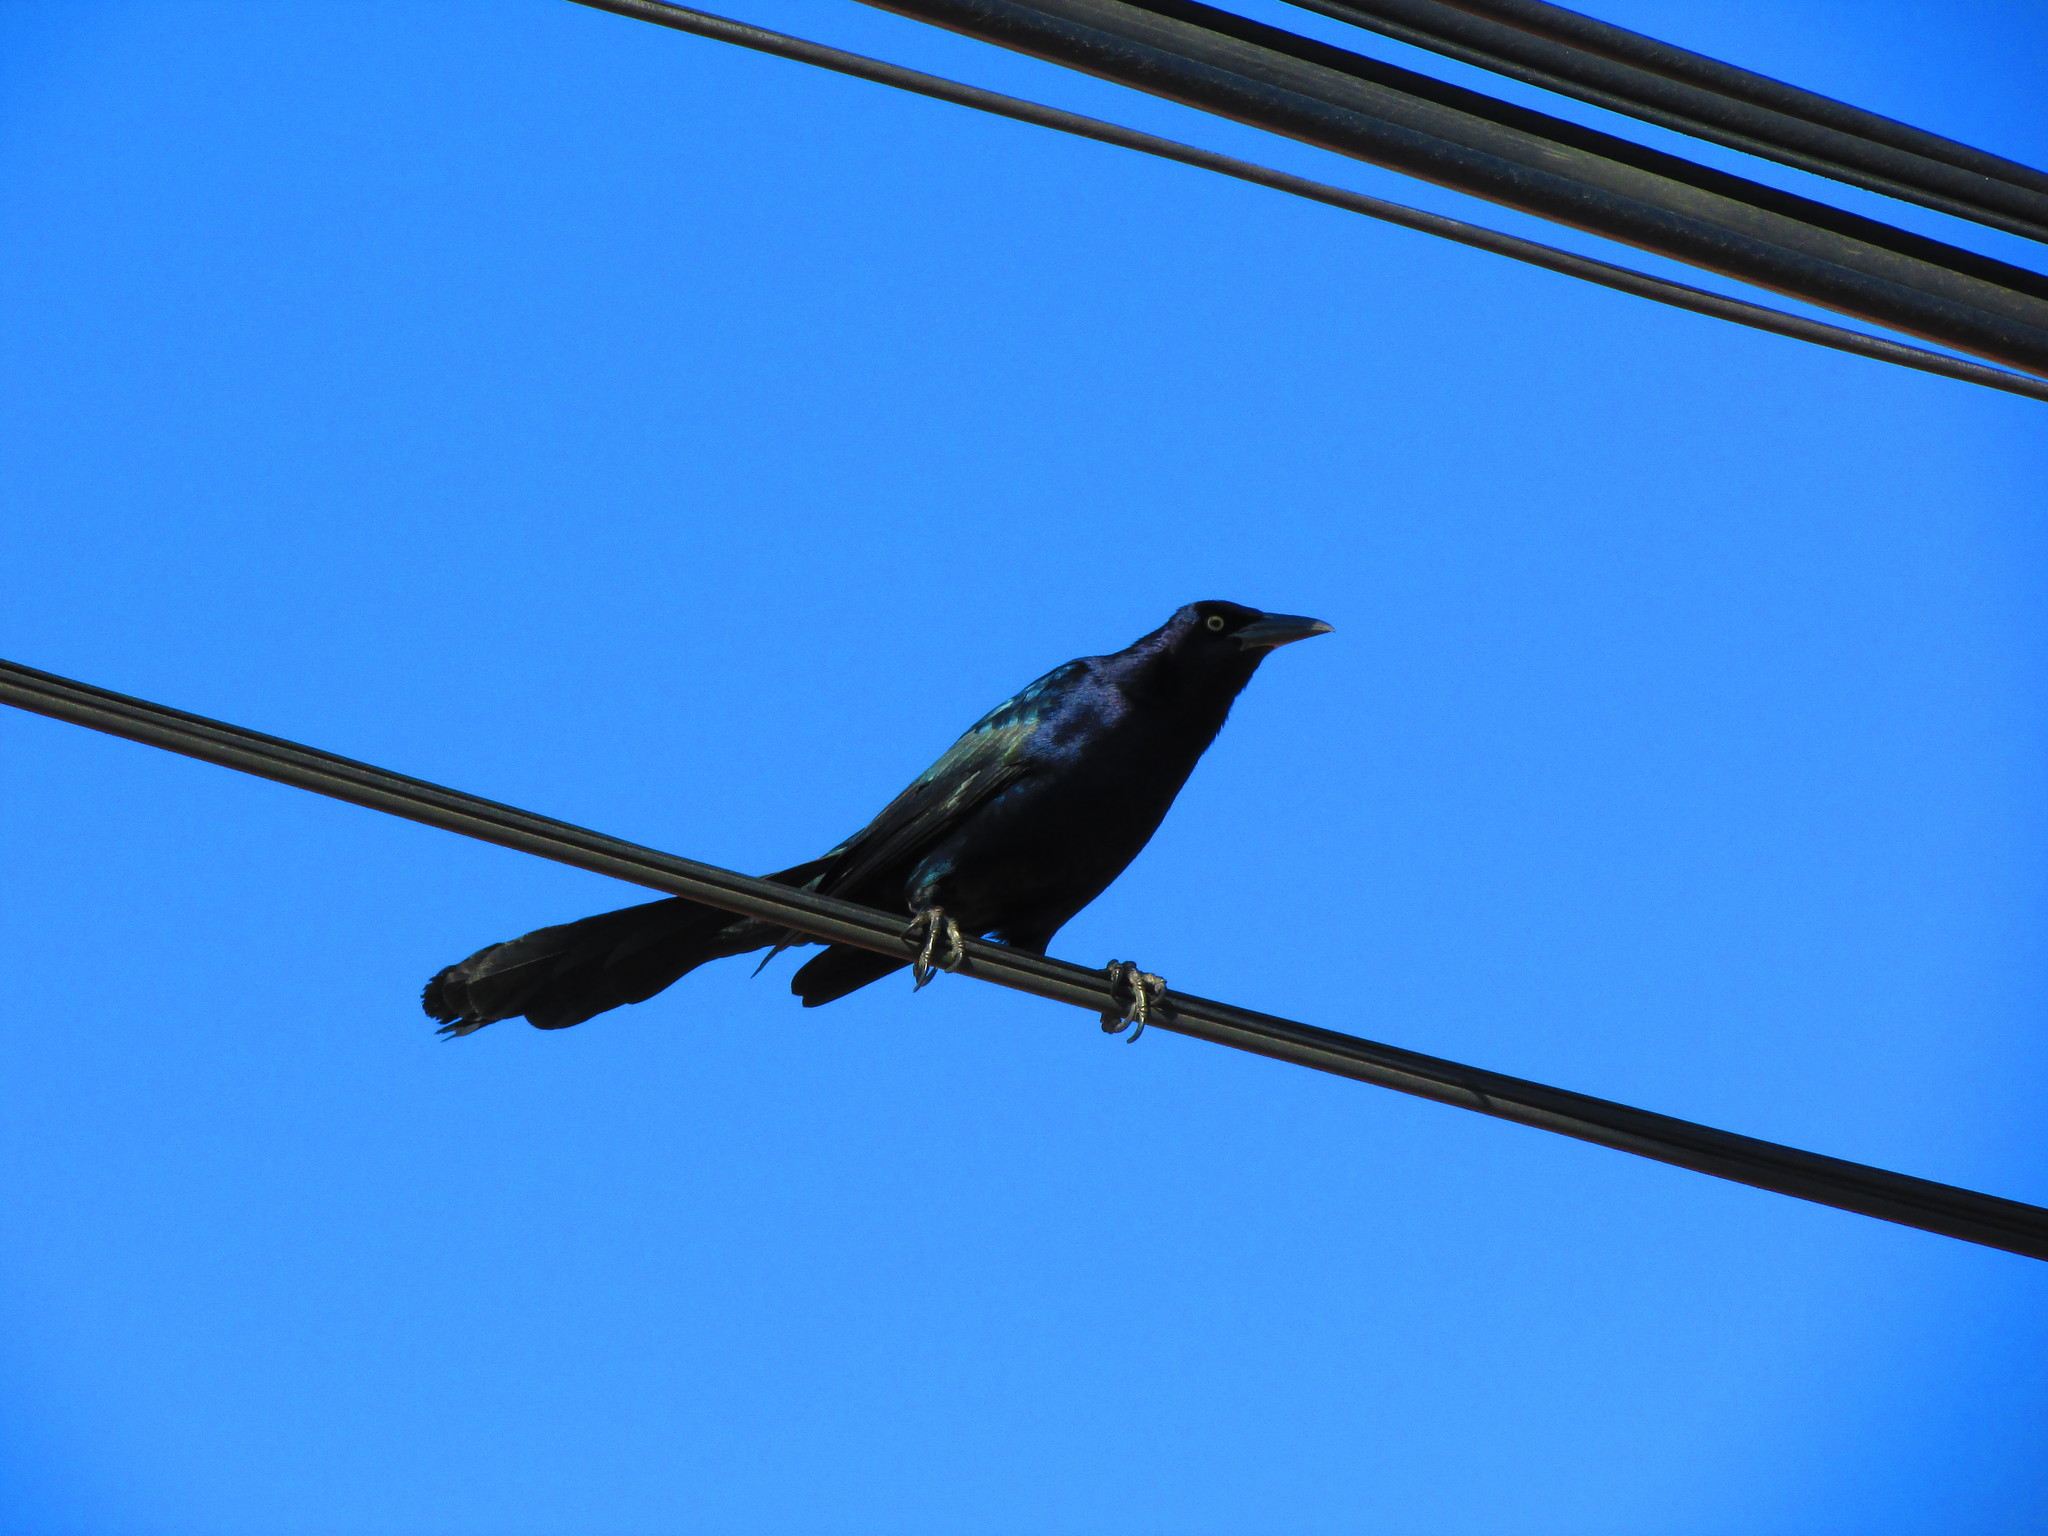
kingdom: Animalia
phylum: Chordata
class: Aves
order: Passeriformes
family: Icteridae
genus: Quiscalus
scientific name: Quiscalus mexicanus
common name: Great-tailed grackle
